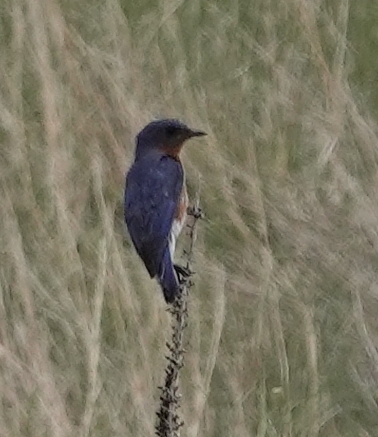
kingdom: Animalia
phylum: Chordata
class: Aves
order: Passeriformes
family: Turdidae
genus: Sialia
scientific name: Sialia sialis
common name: Eastern bluebird
